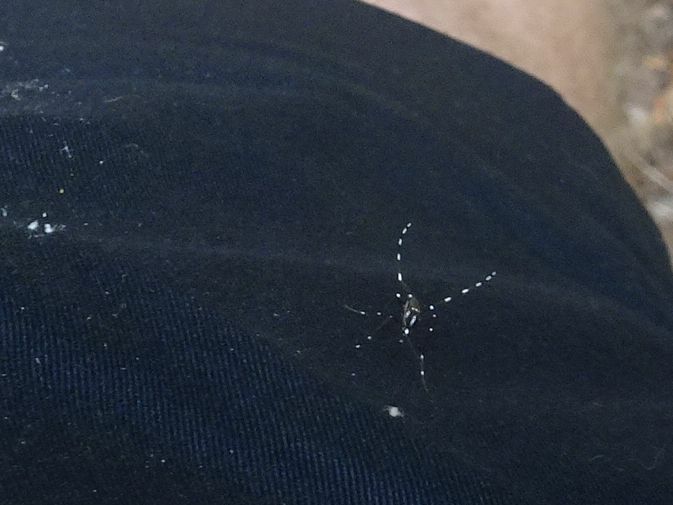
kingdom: Animalia
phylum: Arthropoda
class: Insecta
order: Diptera
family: Culicidae
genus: Aedes
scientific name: Aedes albopictus
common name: Tiger mosquito
